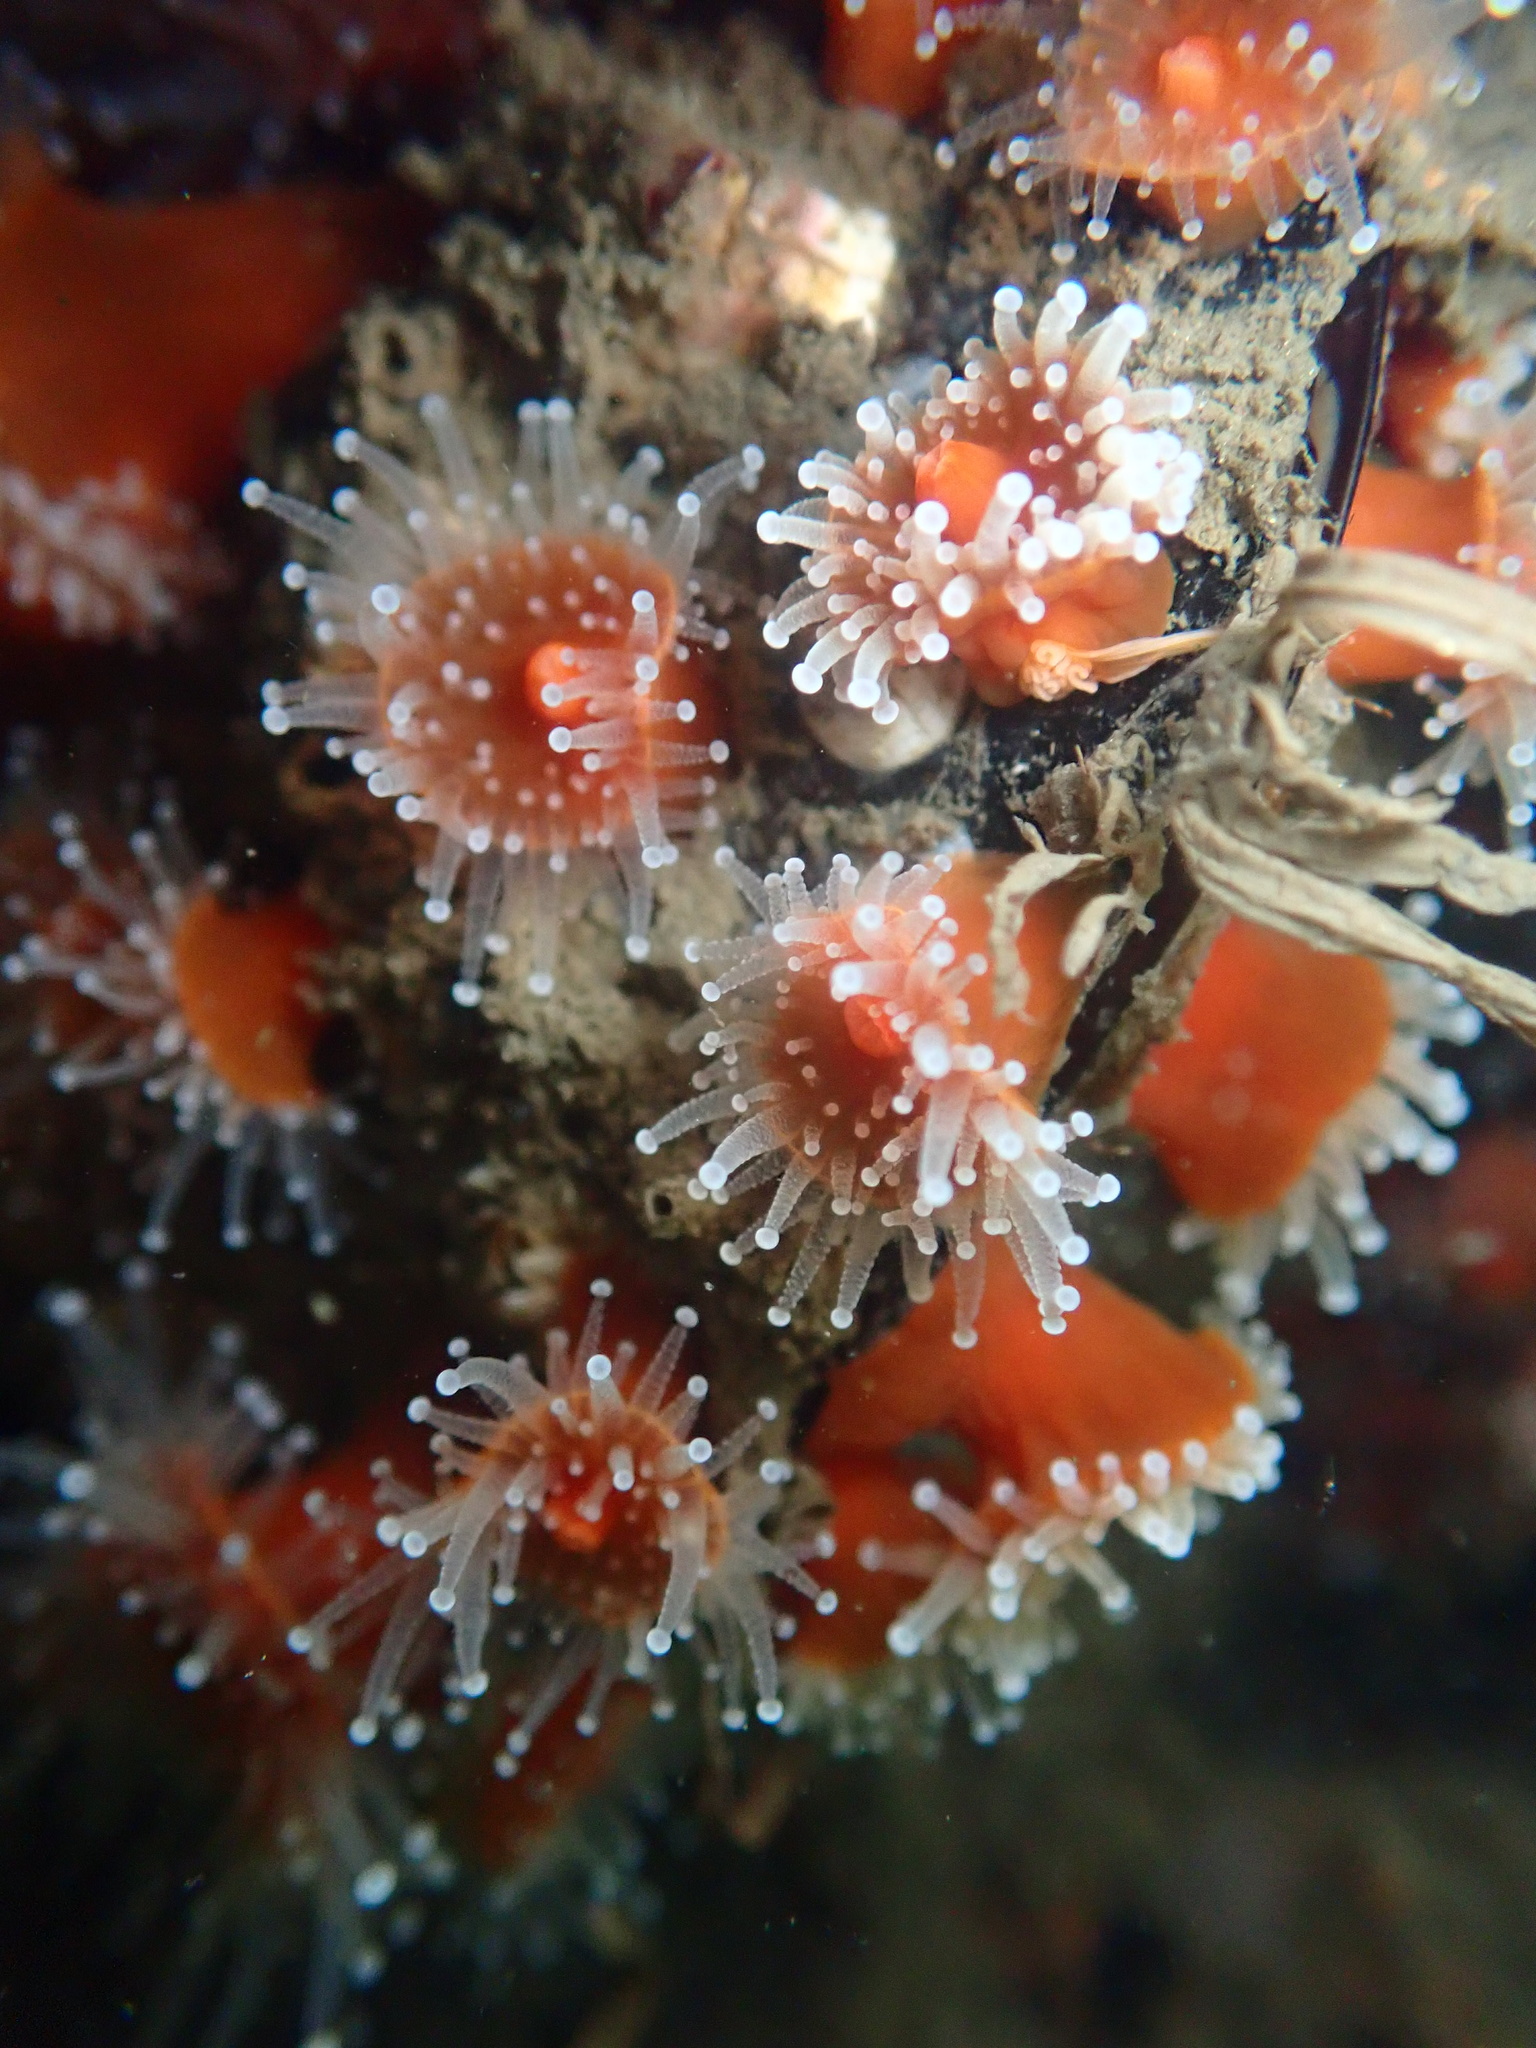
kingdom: Animalia
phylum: Cnidaria
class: Anthozoa
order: Corallimorpharia
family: Corallimorphidae
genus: Corynactis
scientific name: Corynactis californica
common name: Strawberry corallimorpharian
